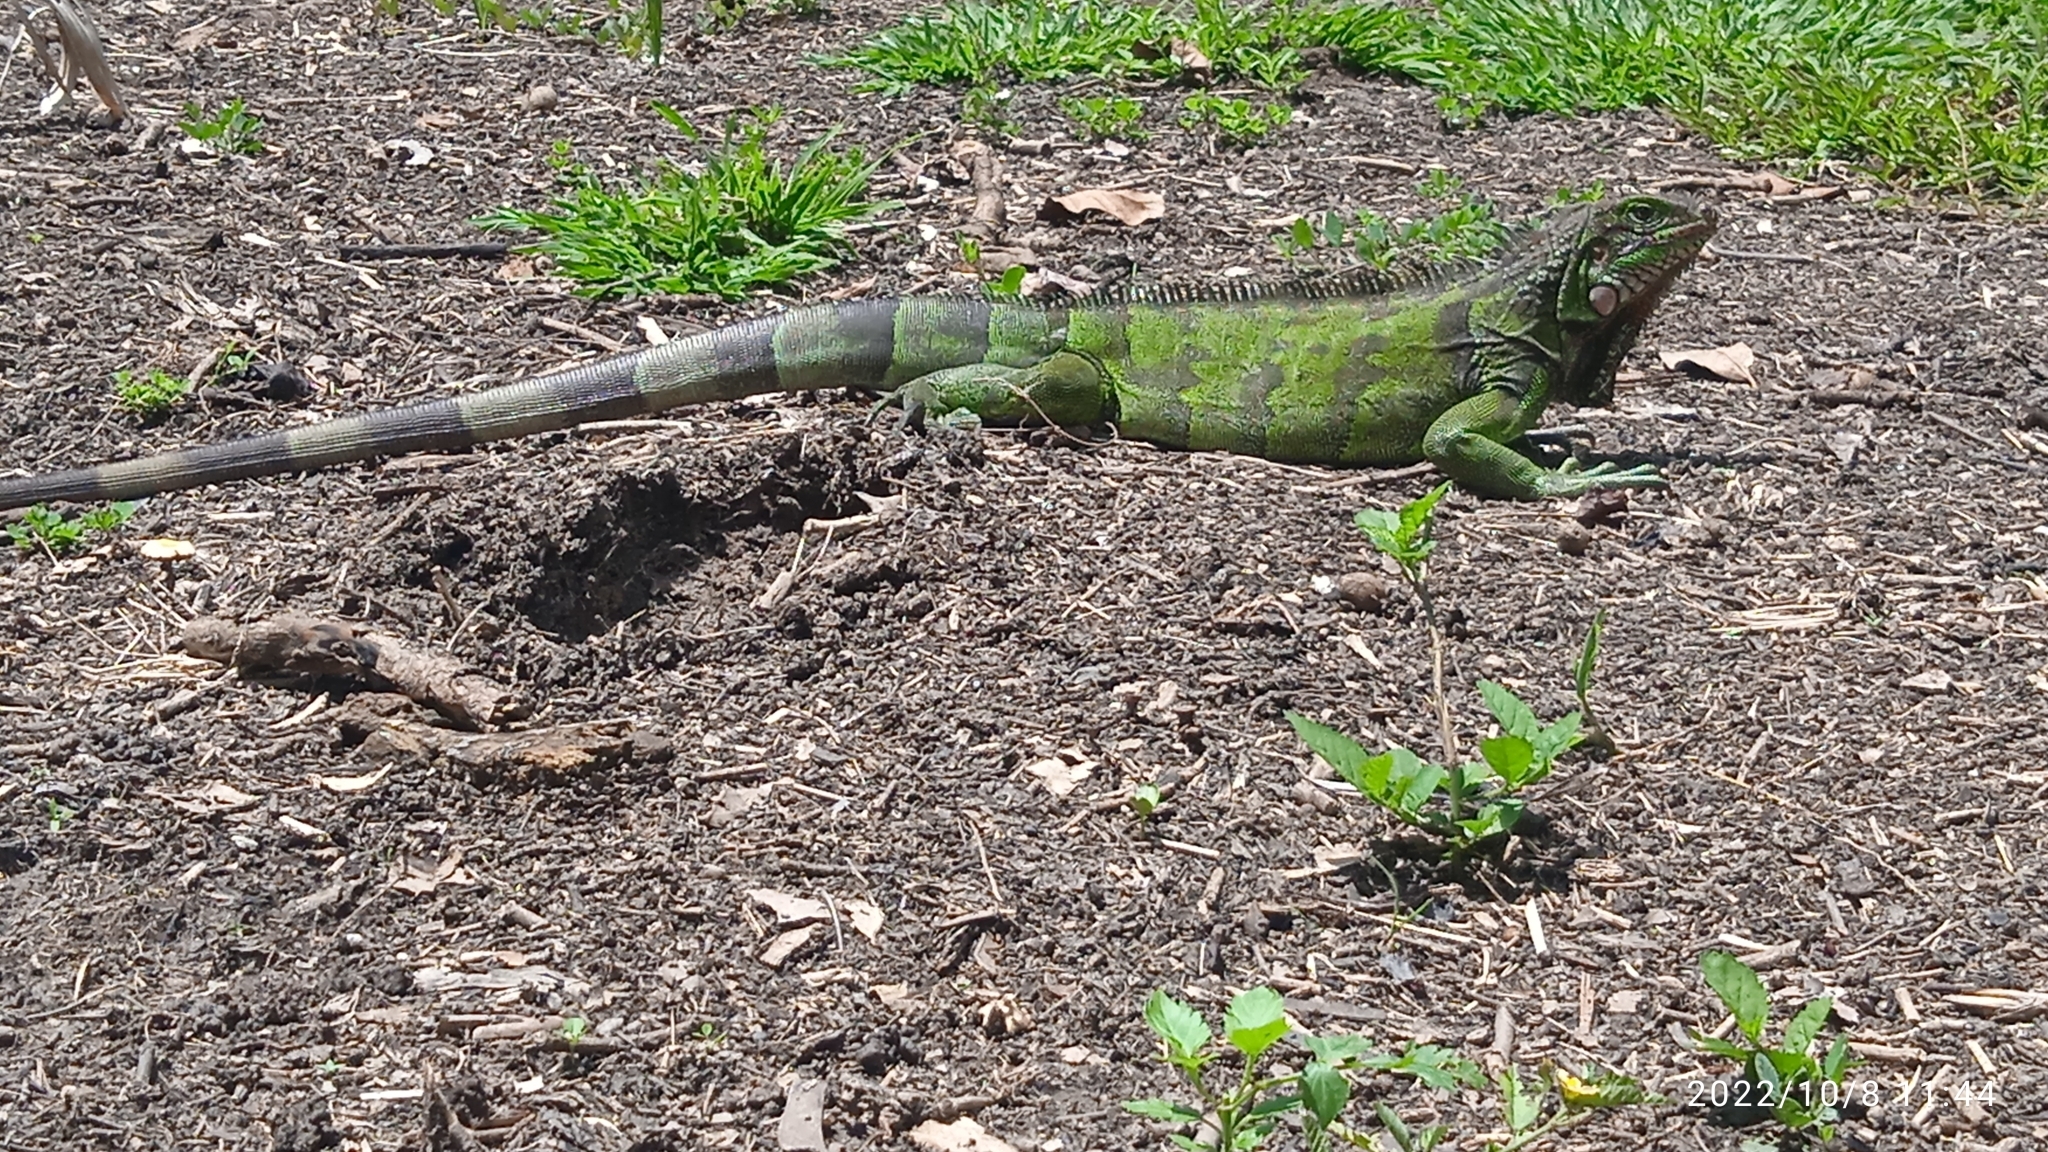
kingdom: Animalia
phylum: Chordata
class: Squamata
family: Iguanidae
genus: Iguana
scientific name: Iguana iguana
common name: Green iguana
